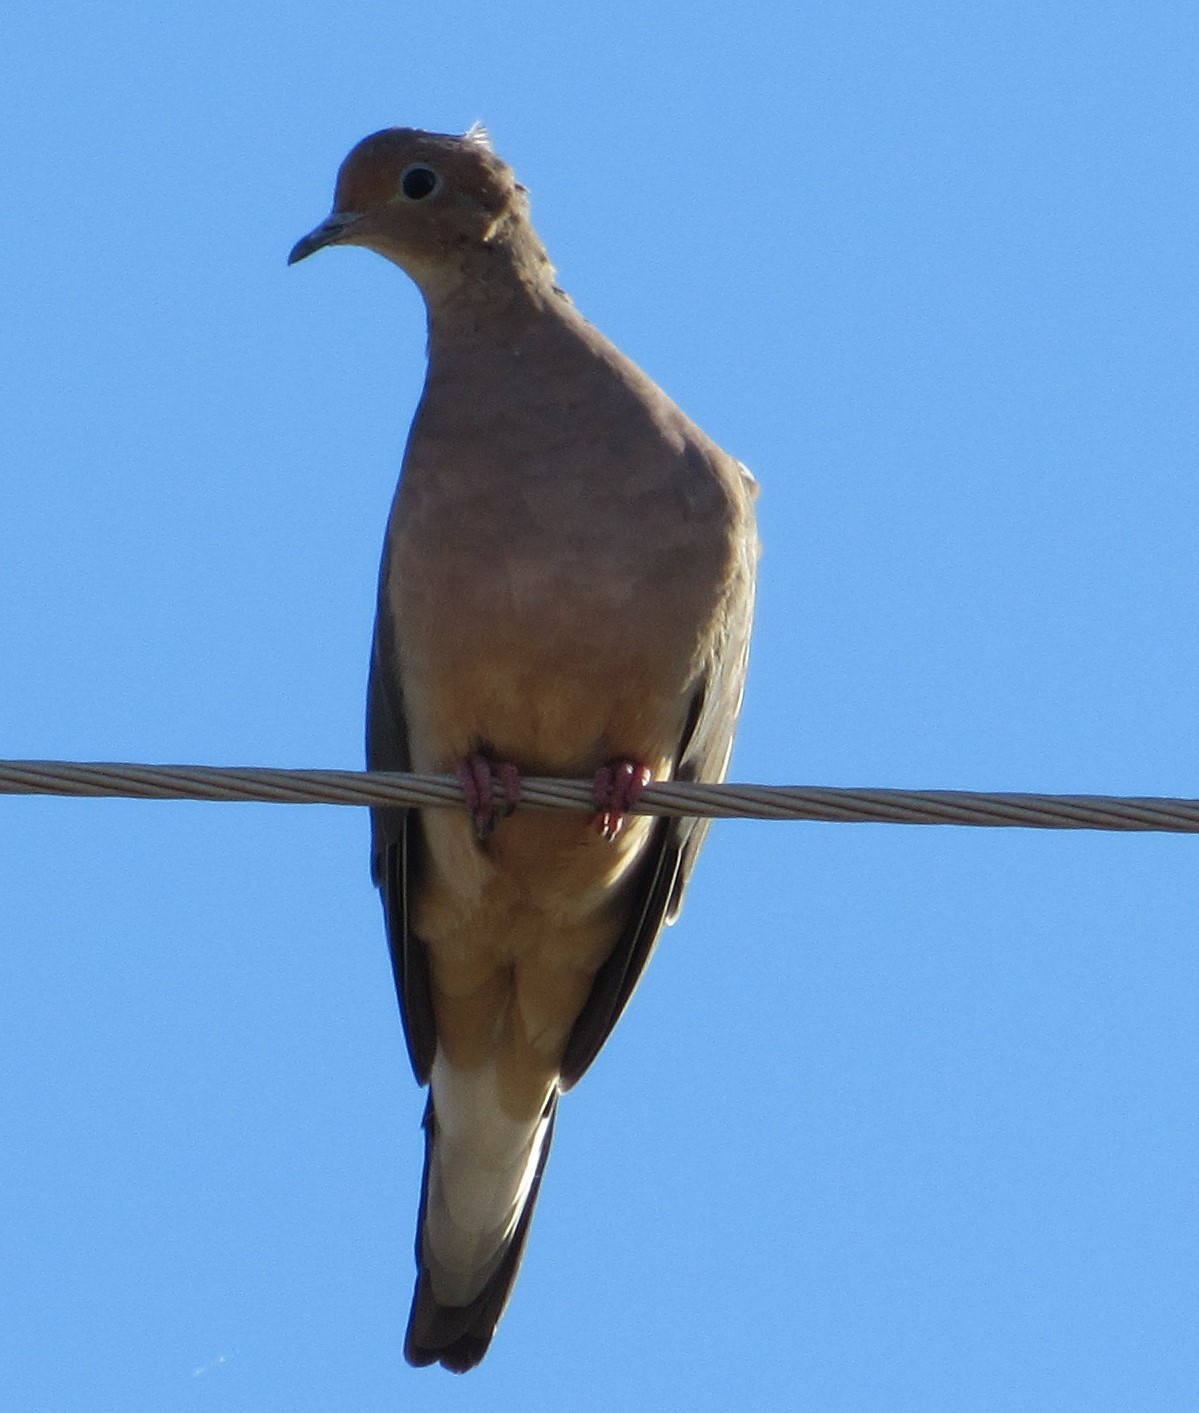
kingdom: Animalia
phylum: Chordata
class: Aves
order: Columbiformes
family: Columbidae
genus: Zenaida
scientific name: Zenaida macroura
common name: Mourning dove
